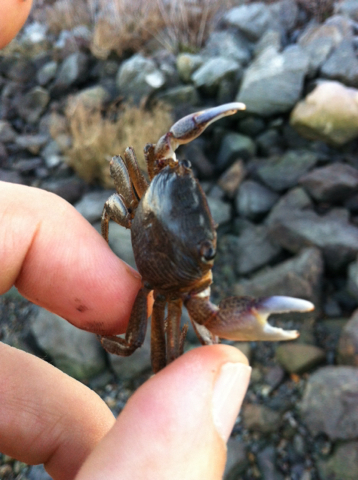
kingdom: Animalia
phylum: Arthropoda
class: Malacostraca
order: Decapoda
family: Grapsidae
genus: Pachygrapsus
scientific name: Pachygrapsus crassipes
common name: Striped shore crab
